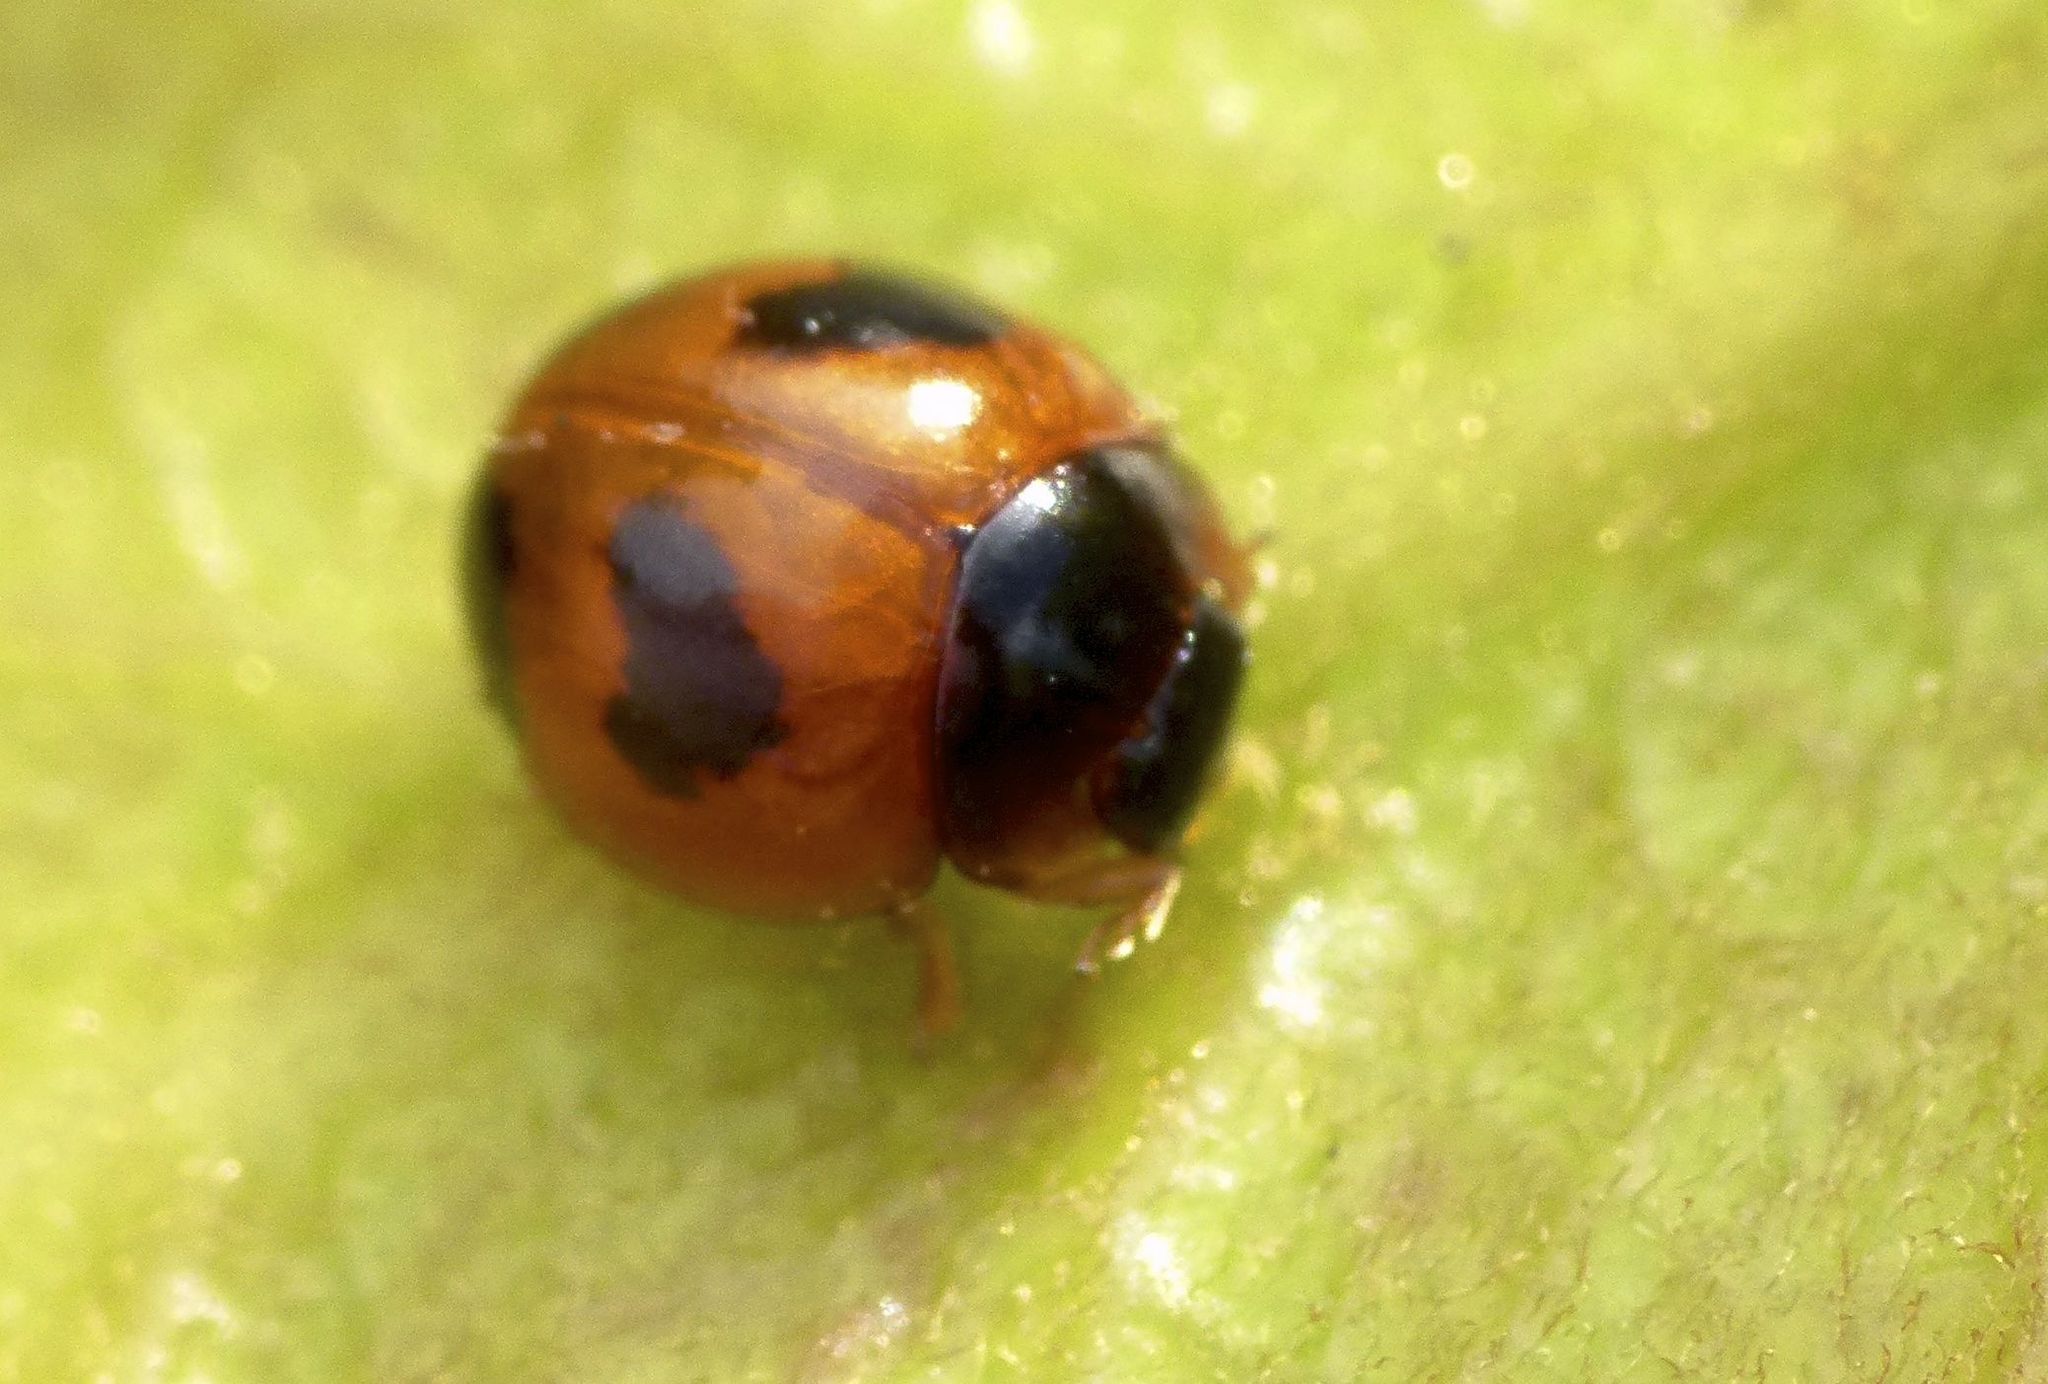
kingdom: Animalia
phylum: Arthropoda
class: Insecta
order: Coleoptera
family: Coccinellidae
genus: Exochomus
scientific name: Exochomus childreni
